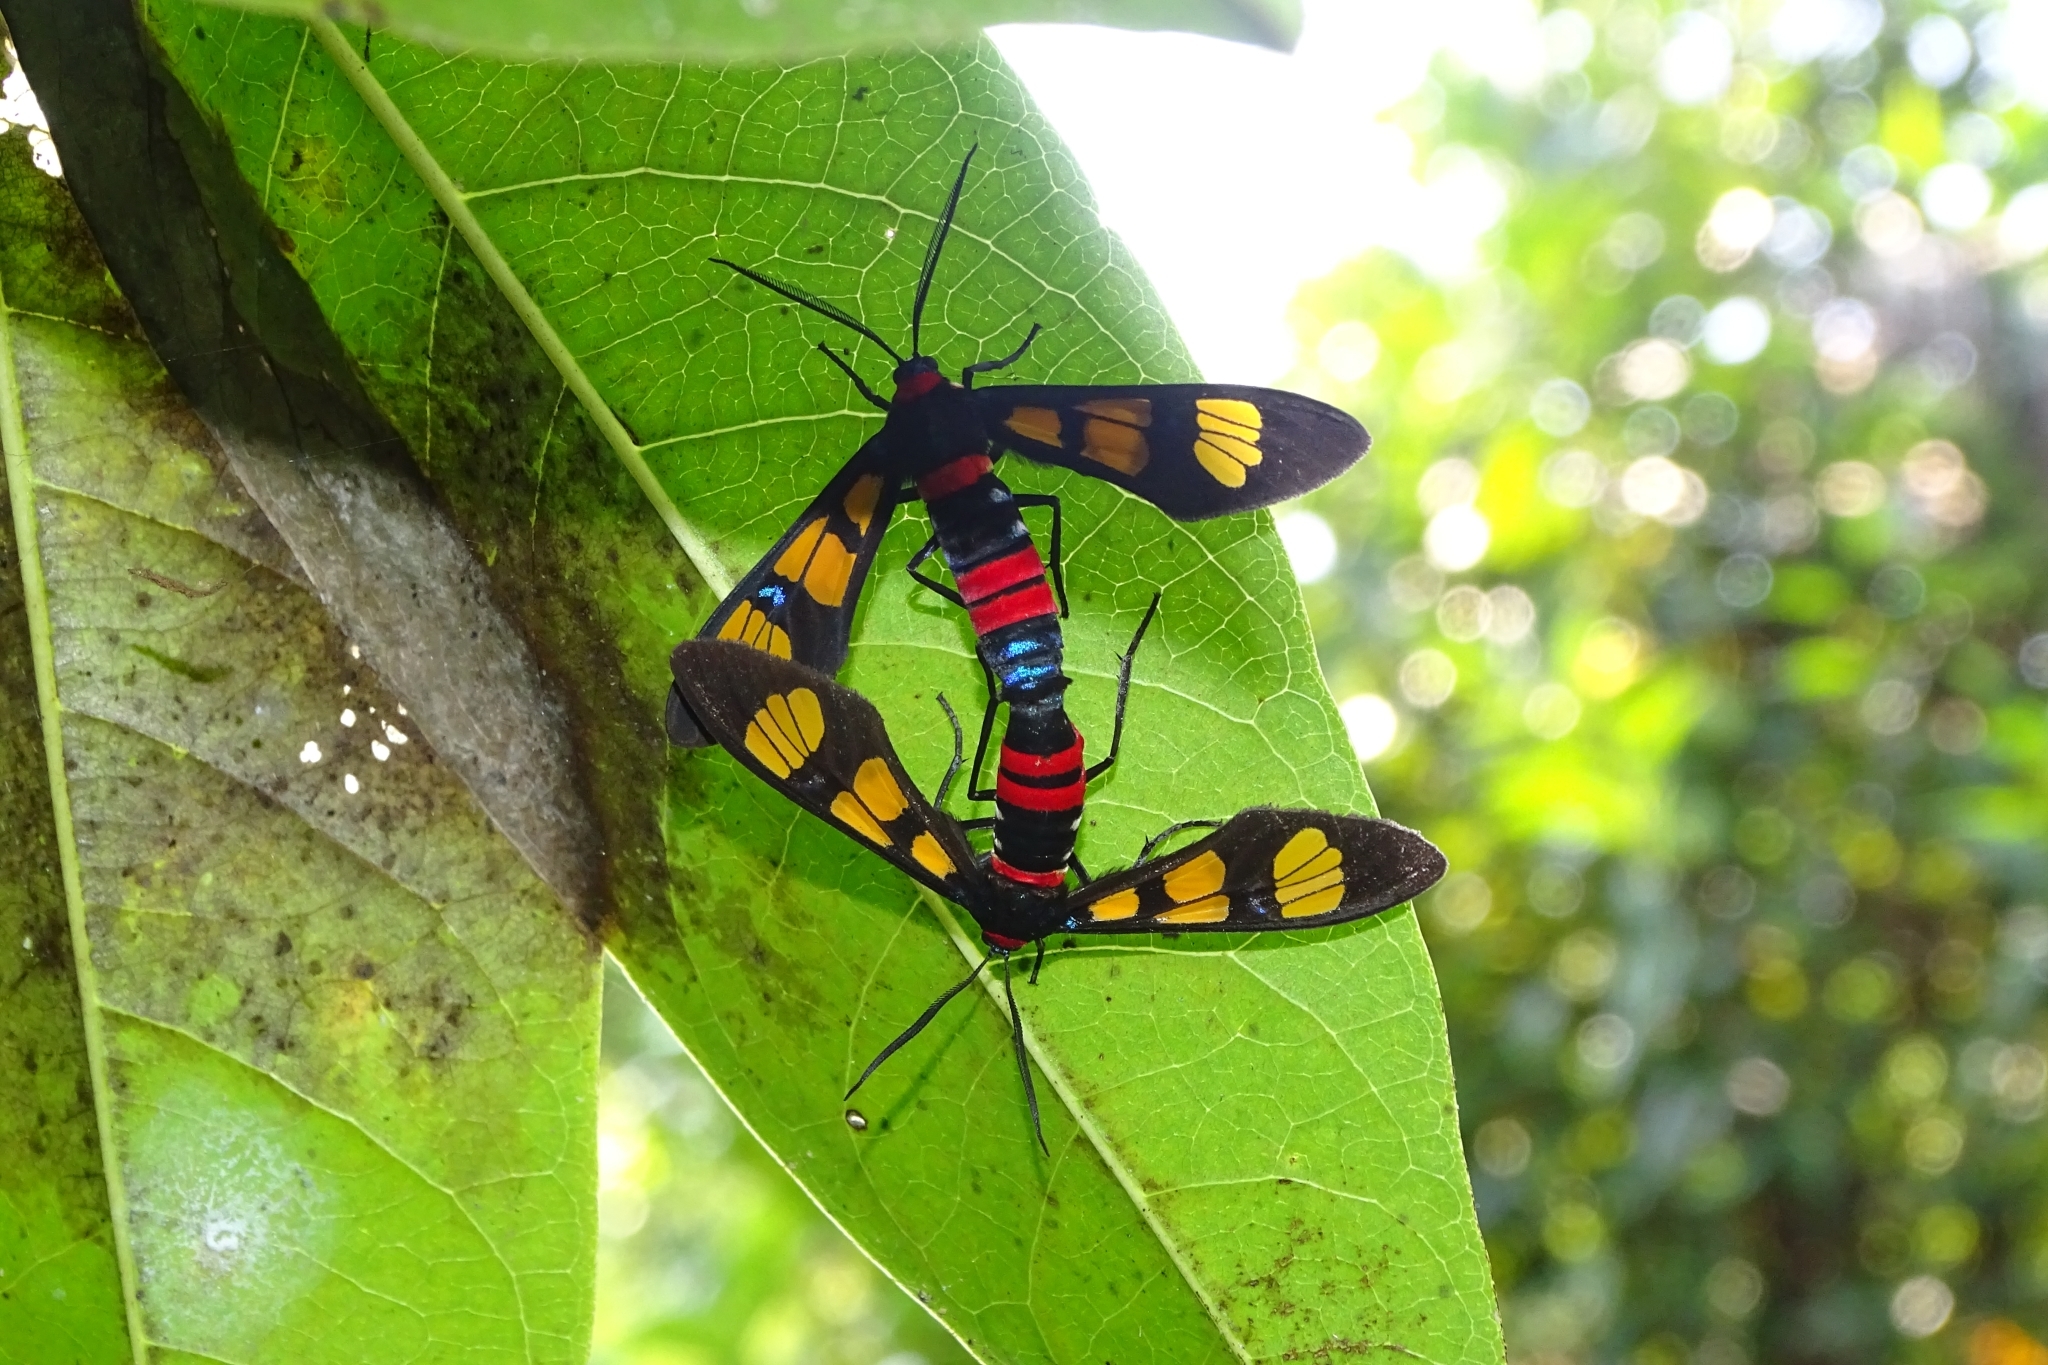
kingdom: Animalia
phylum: Arthropoda
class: Insecta
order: Lepidoptera
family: Erebidae
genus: Euchromia
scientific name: Euchromia polymena
